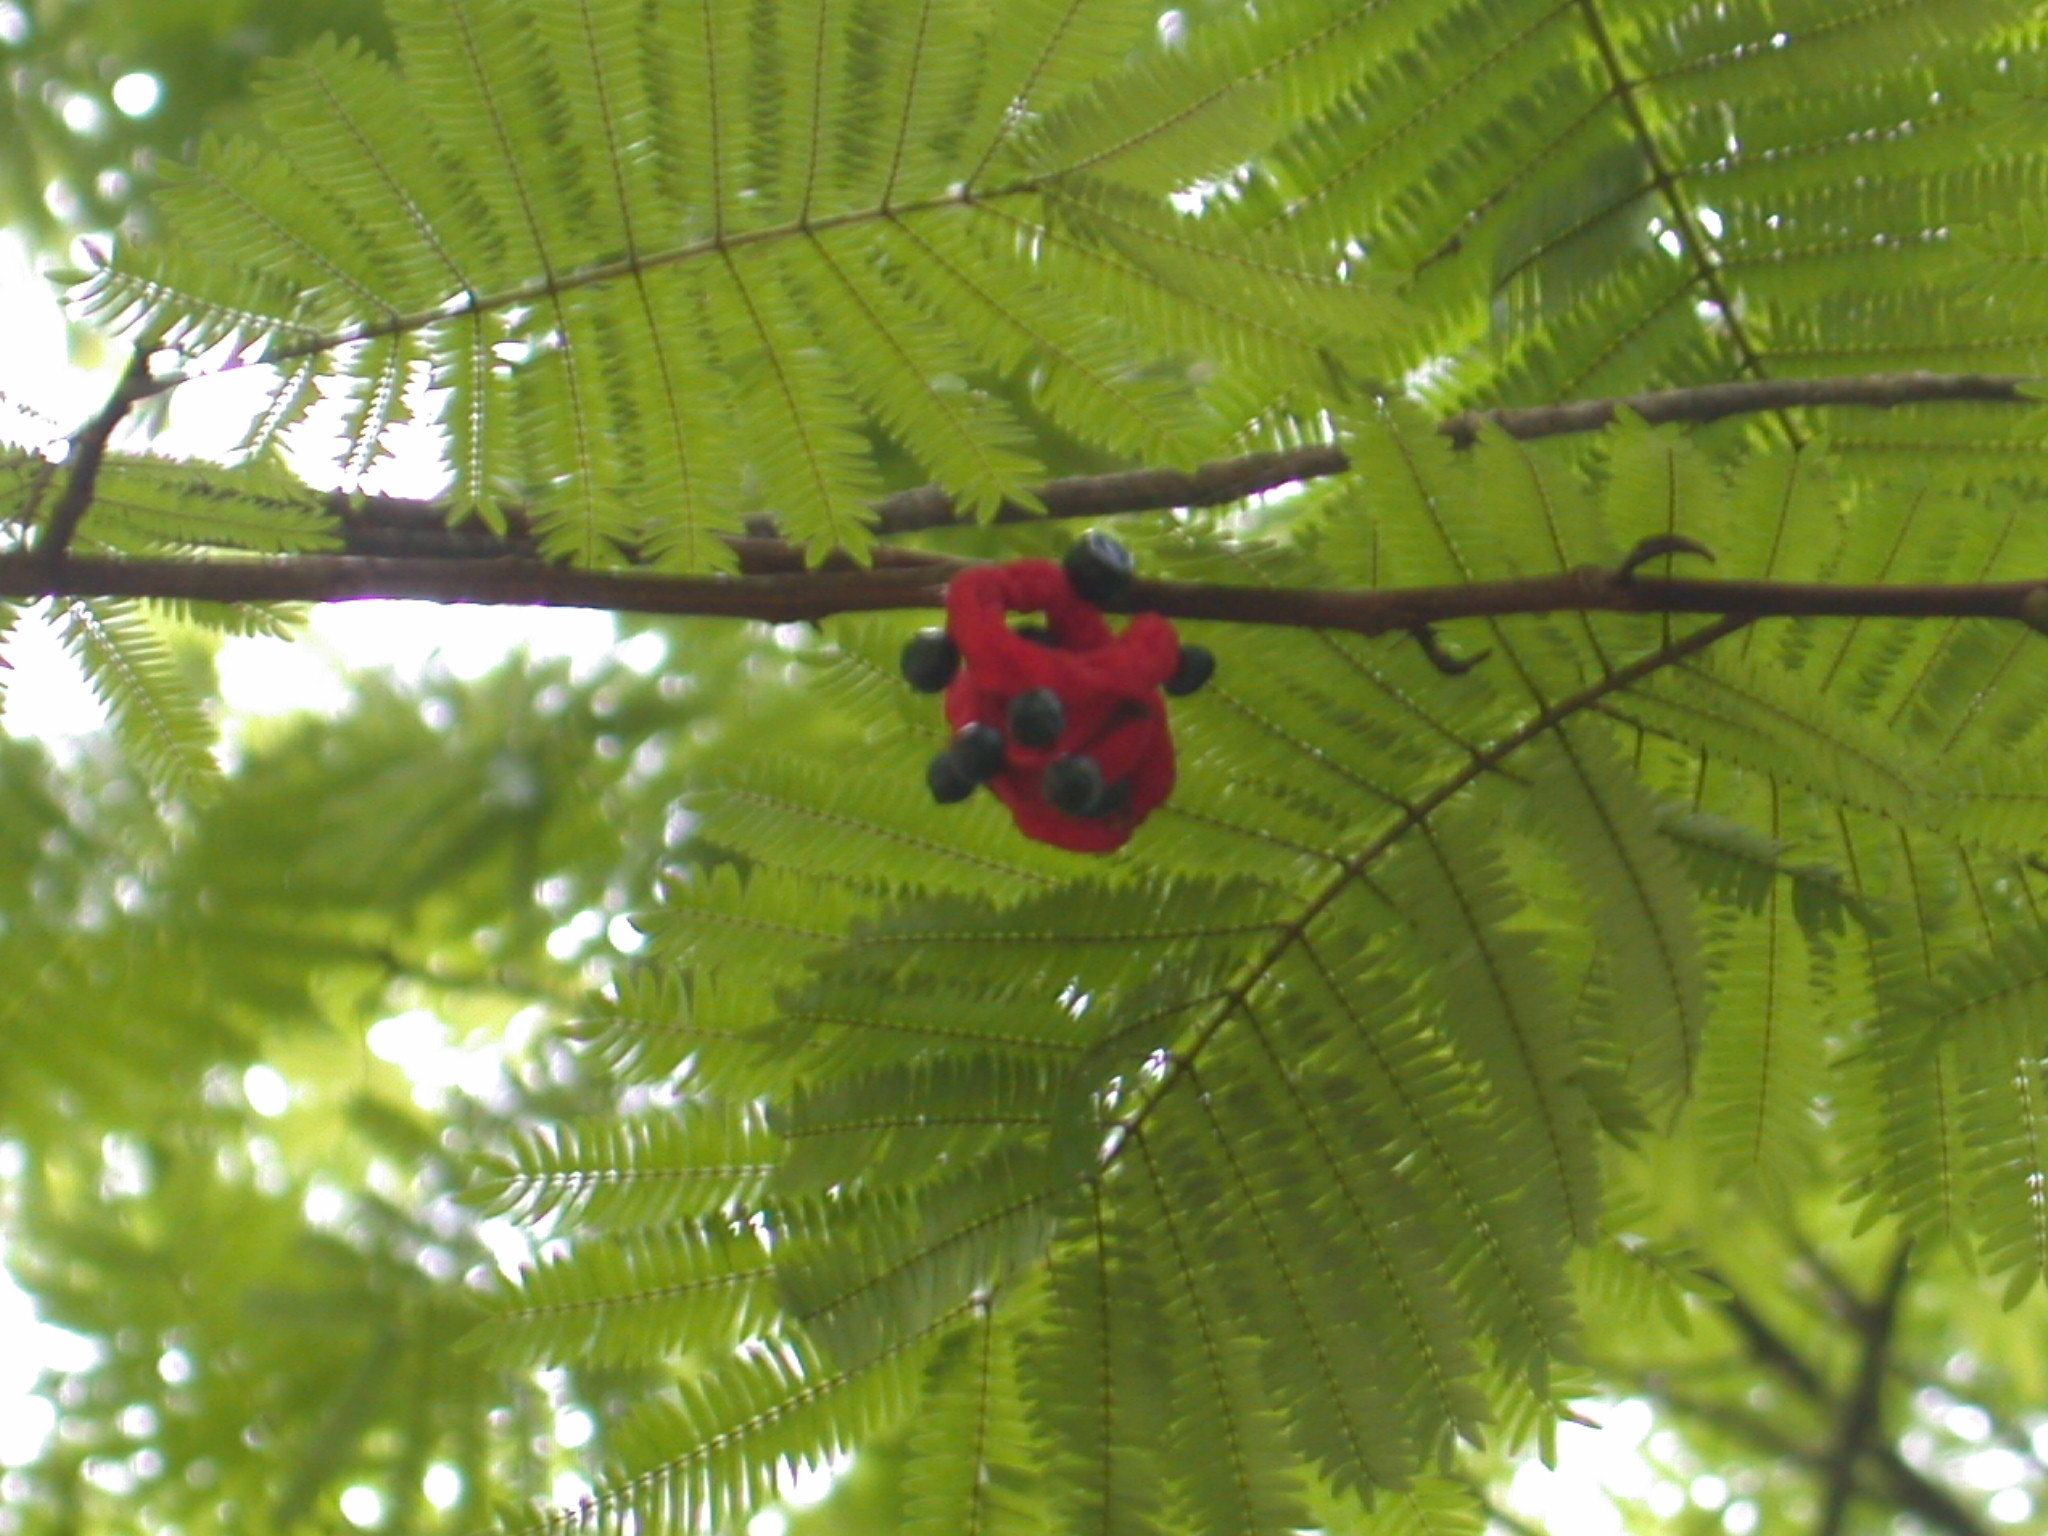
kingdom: Plantae
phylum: Tracheophyta
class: Magnoliopsida
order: Fabales
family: Fabaceae
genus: Cojoba
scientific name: Cojoba arborea
